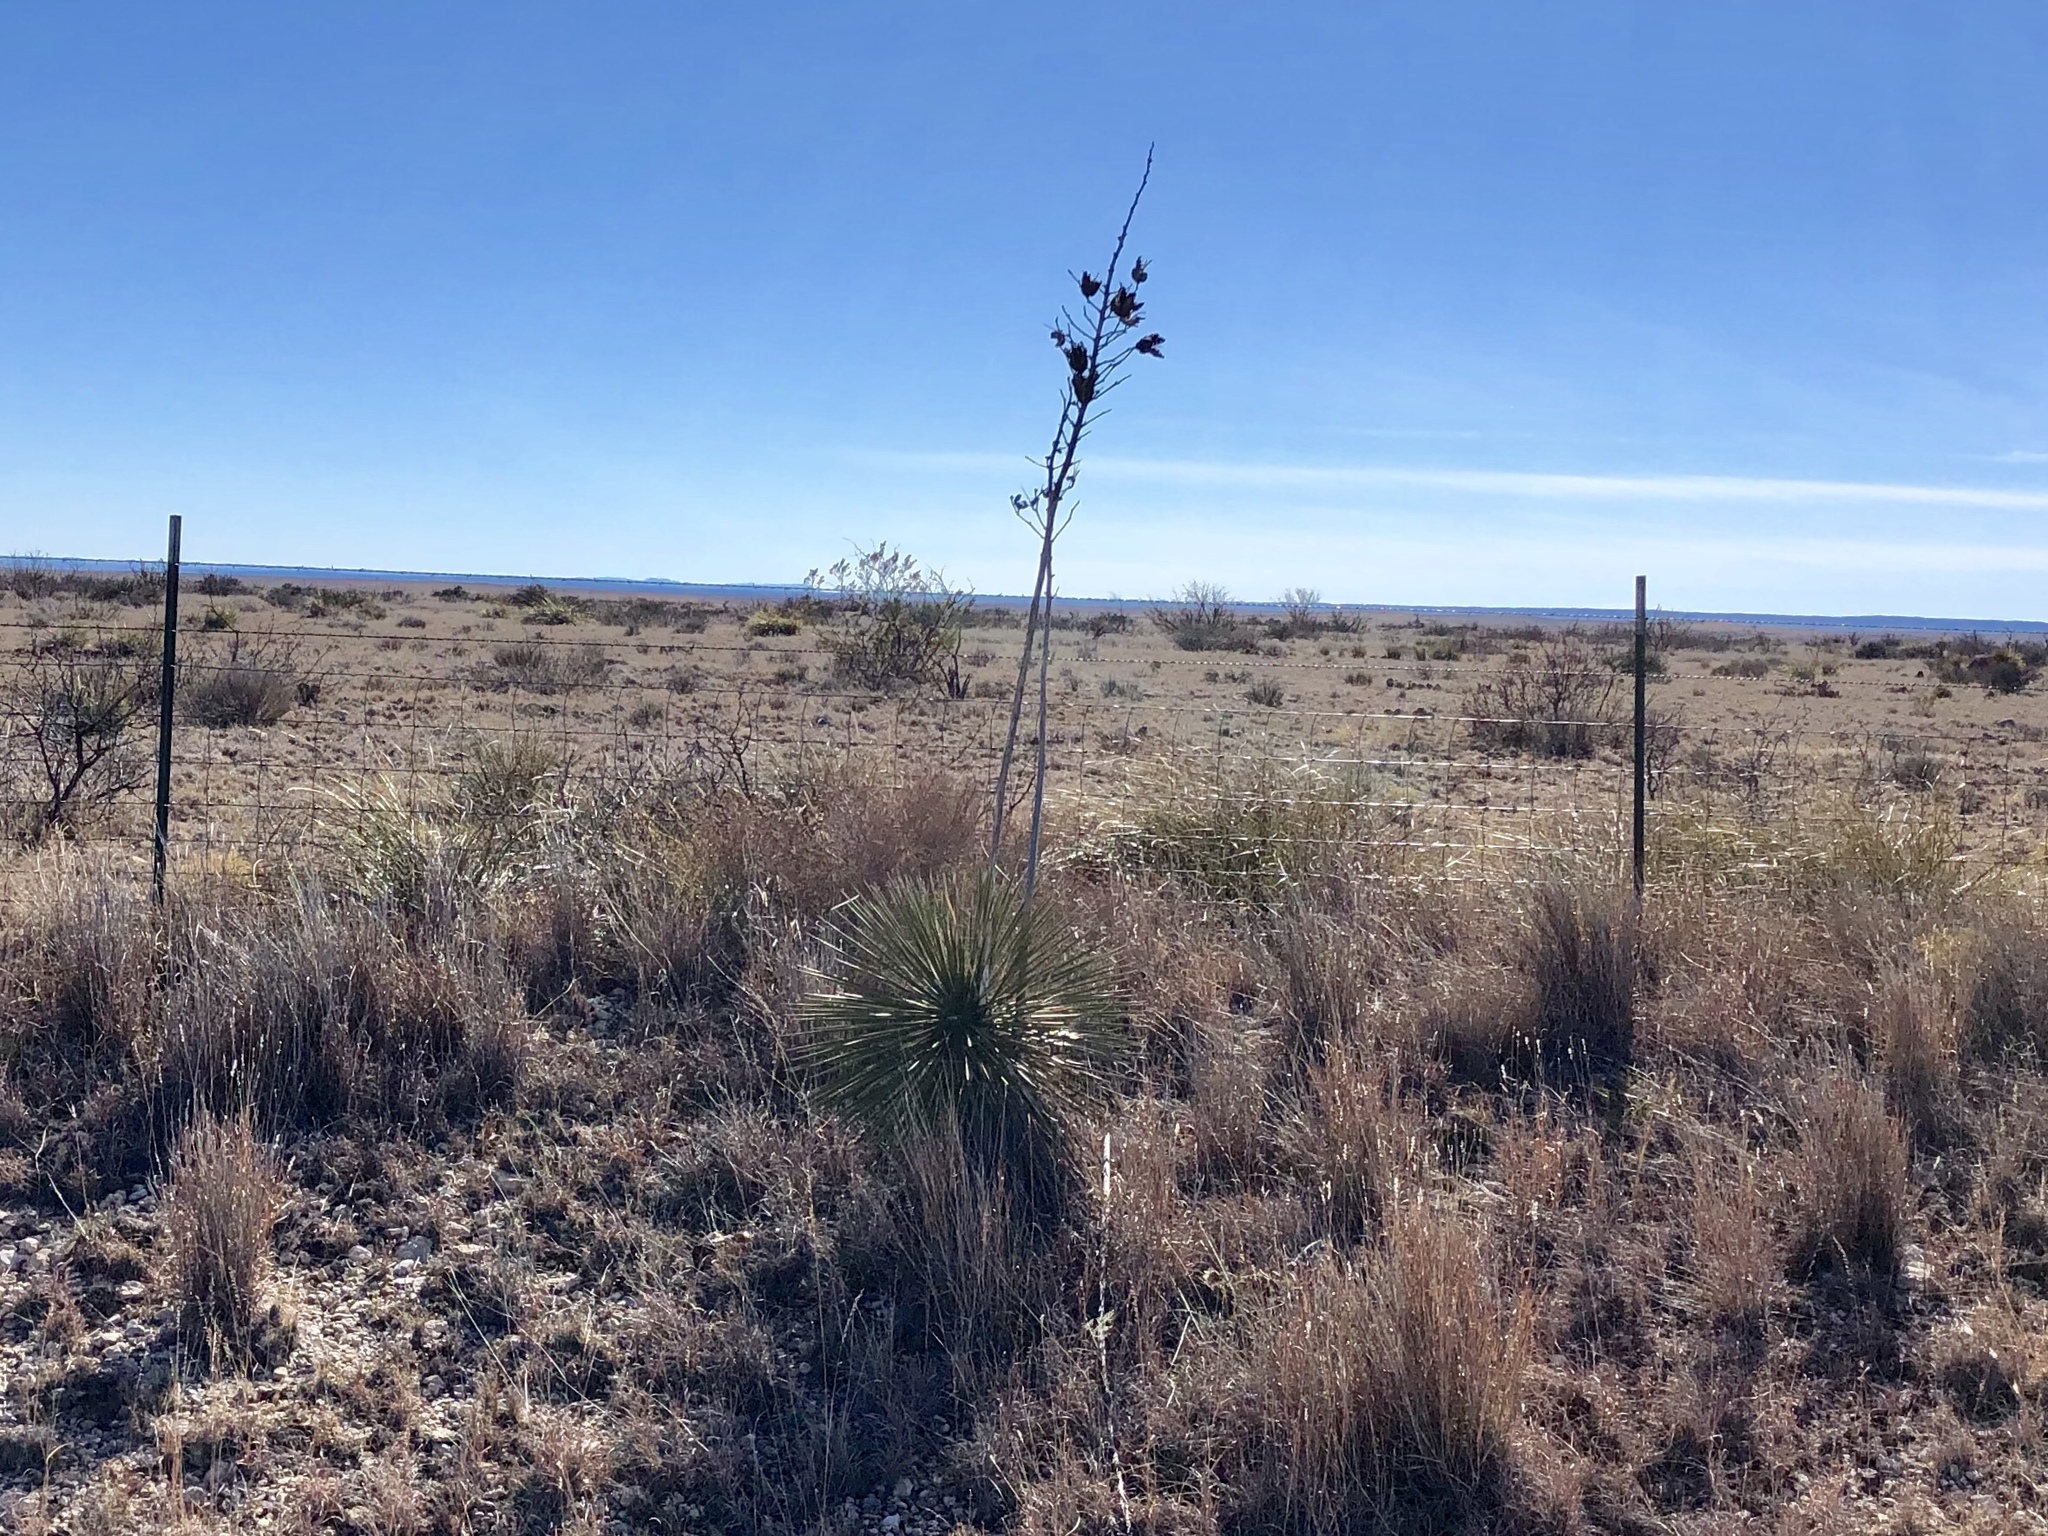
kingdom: Plantae
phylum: Tracheophyta
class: Liliopsida
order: Asparagales
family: Asparagaceae
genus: Yucca
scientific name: Yucca elata
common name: Palmella
